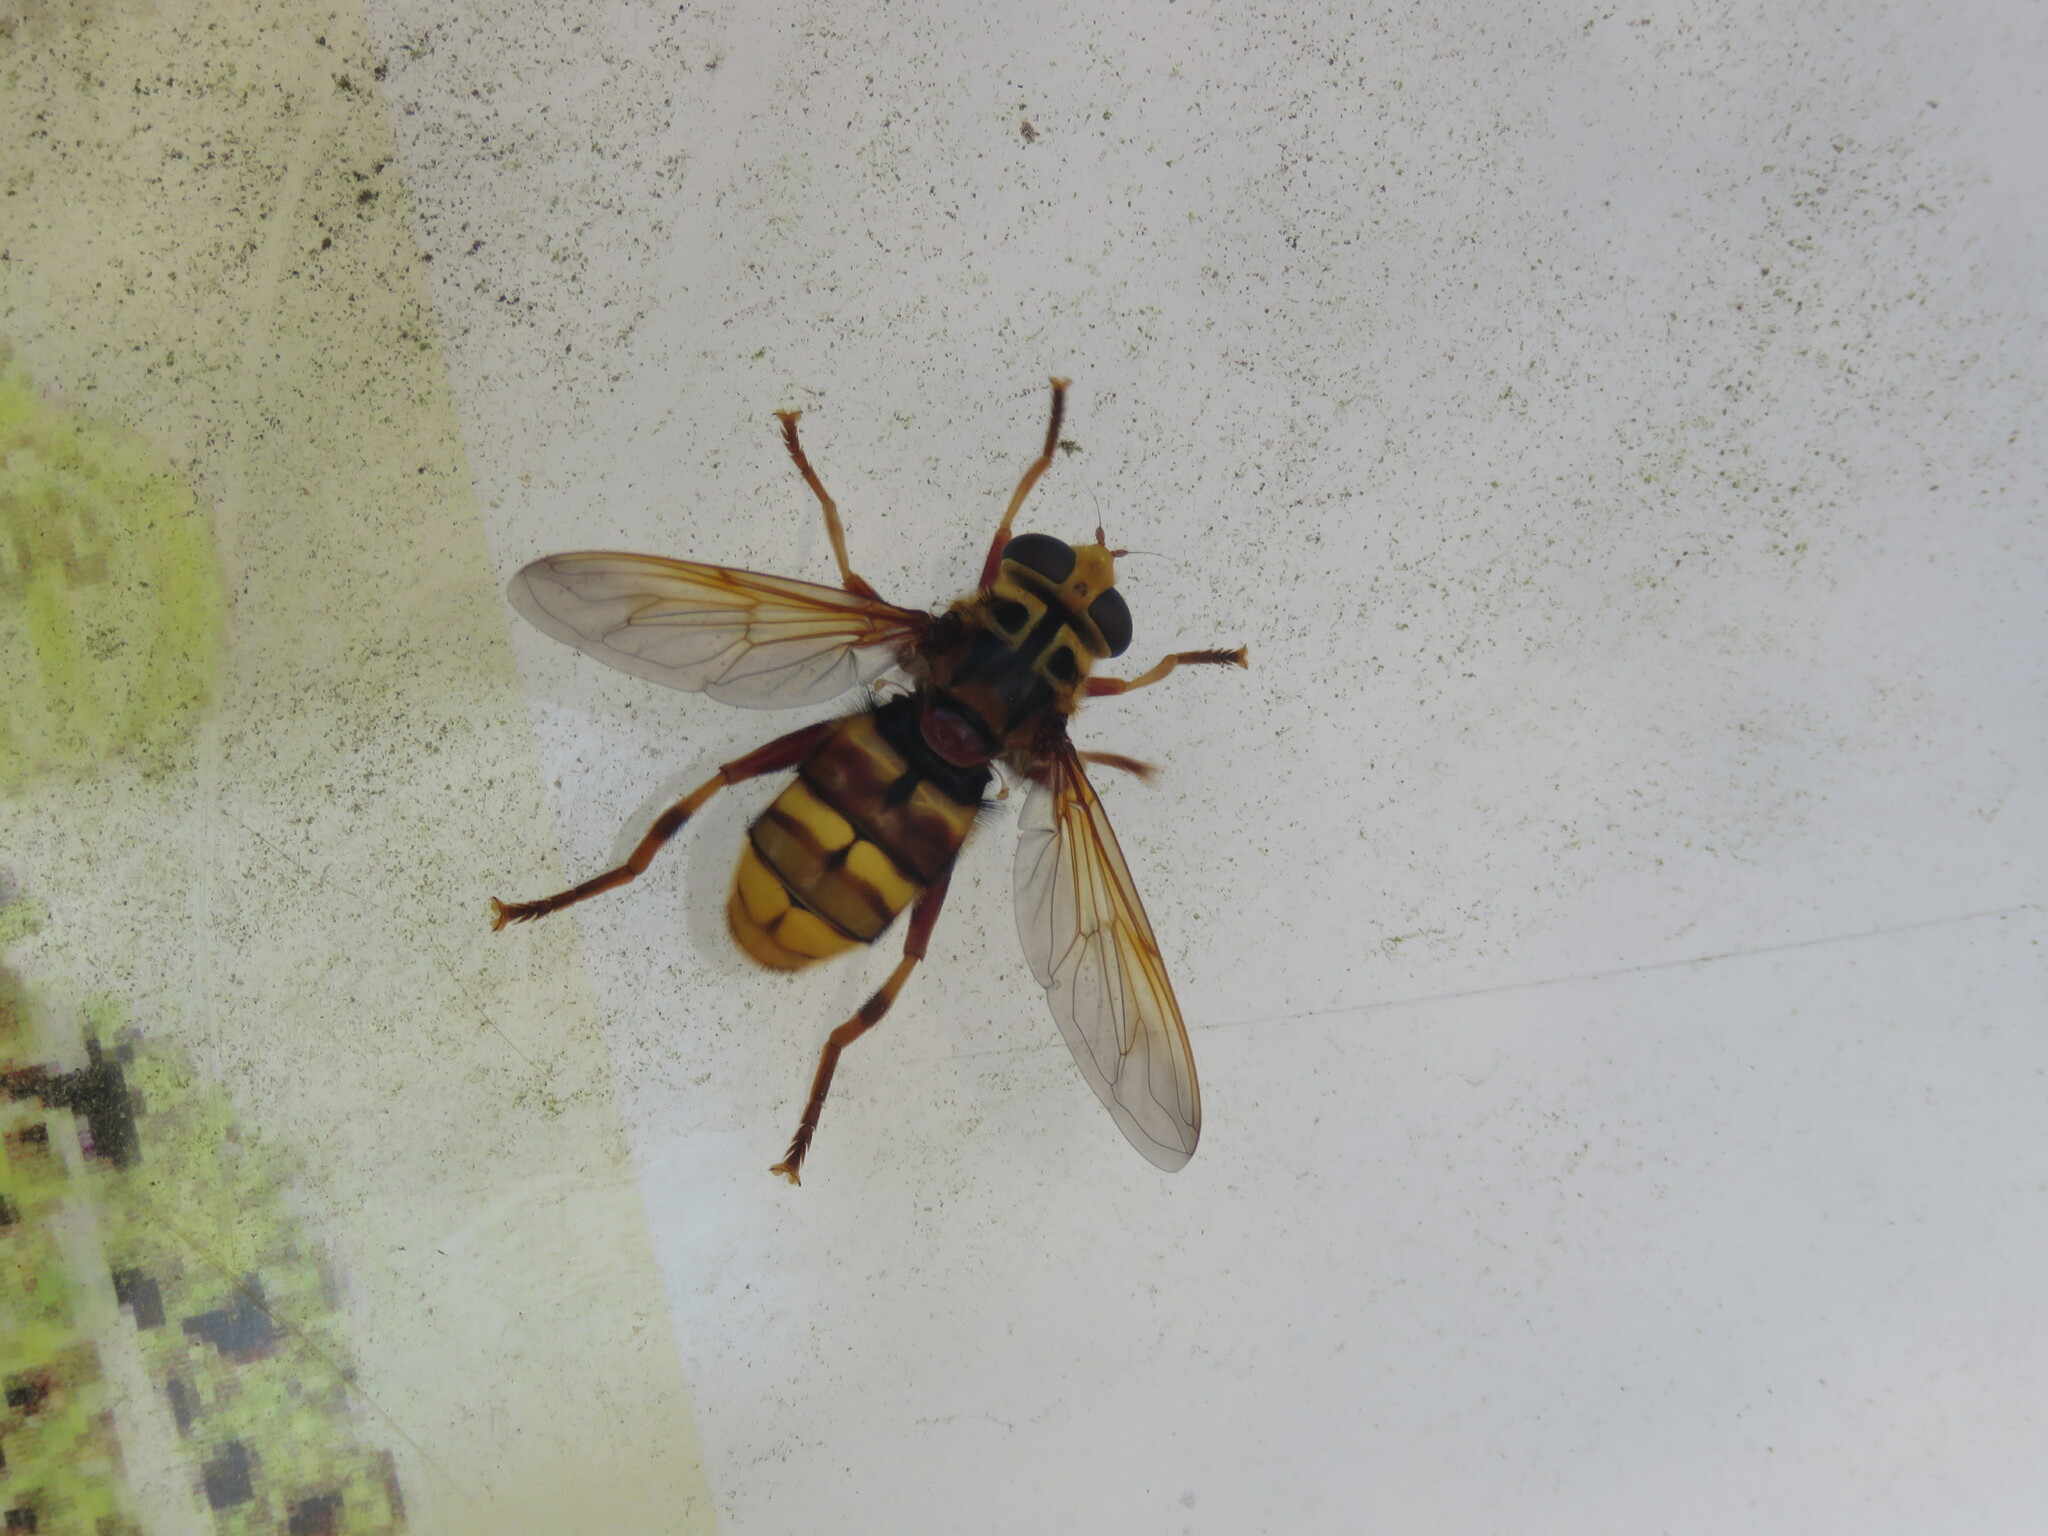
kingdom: Animalia
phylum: Arthropoda
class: Insecta
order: Diptera
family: Syrphidae
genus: Milesia
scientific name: Milesia crabroniformis
